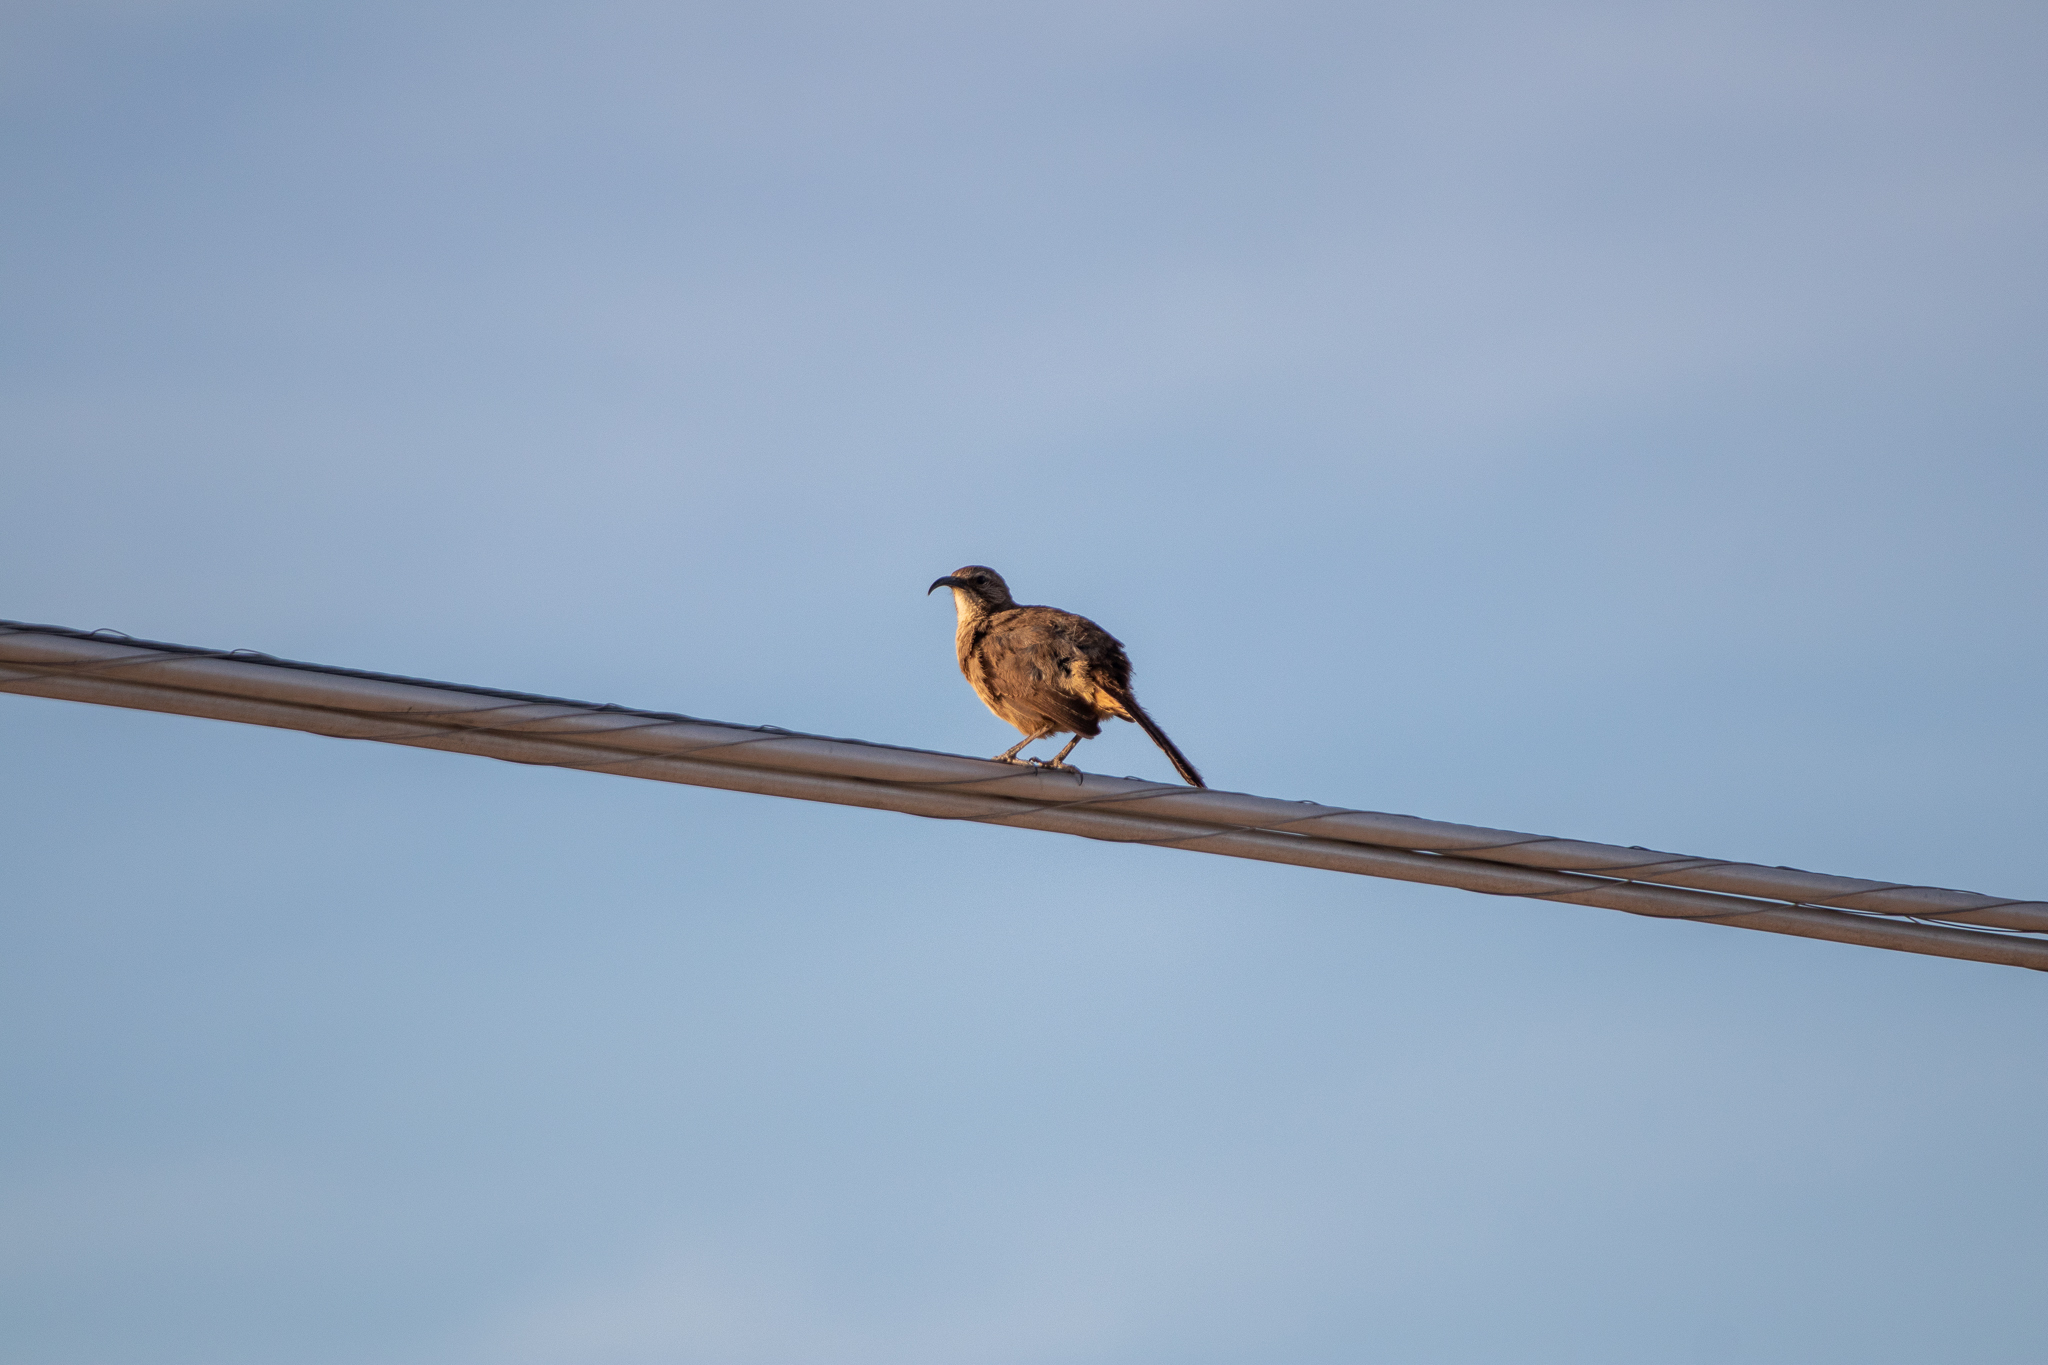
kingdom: Animalia
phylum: Chordata
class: Aves
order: Passeriformes
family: Mimidae
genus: Toxostoma
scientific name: Toxostoma redivivum
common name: California thrasher
